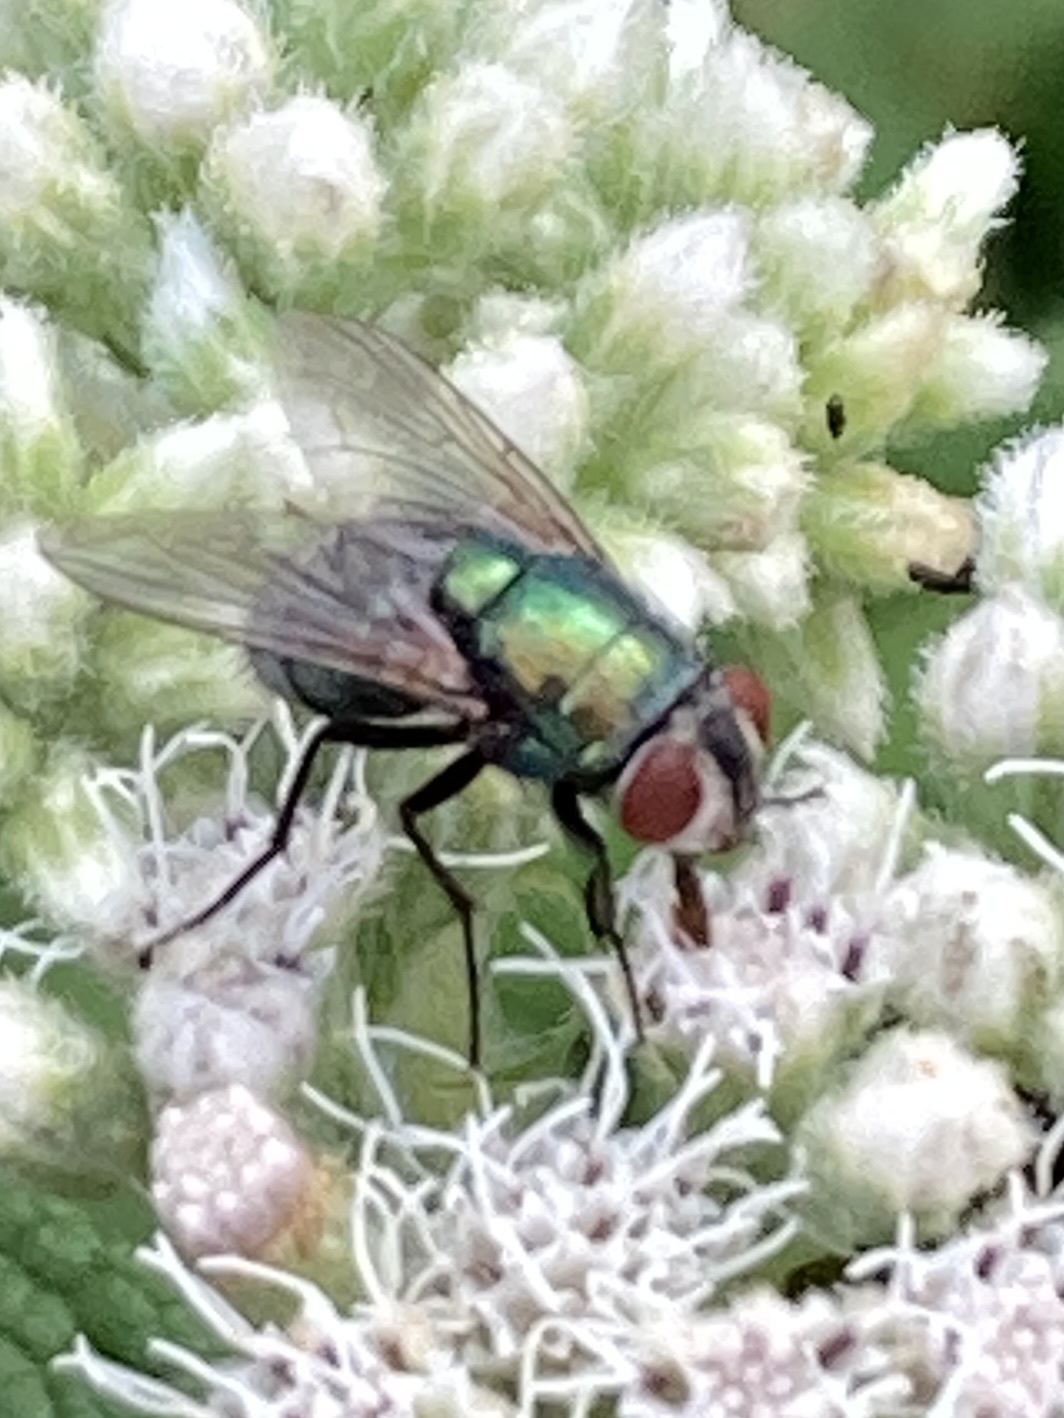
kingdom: Animalia
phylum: Arthropoda
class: Insecta
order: Diptera
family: Calliphoridae
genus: Lucilia
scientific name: Lucilia sericata
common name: Blow fly
